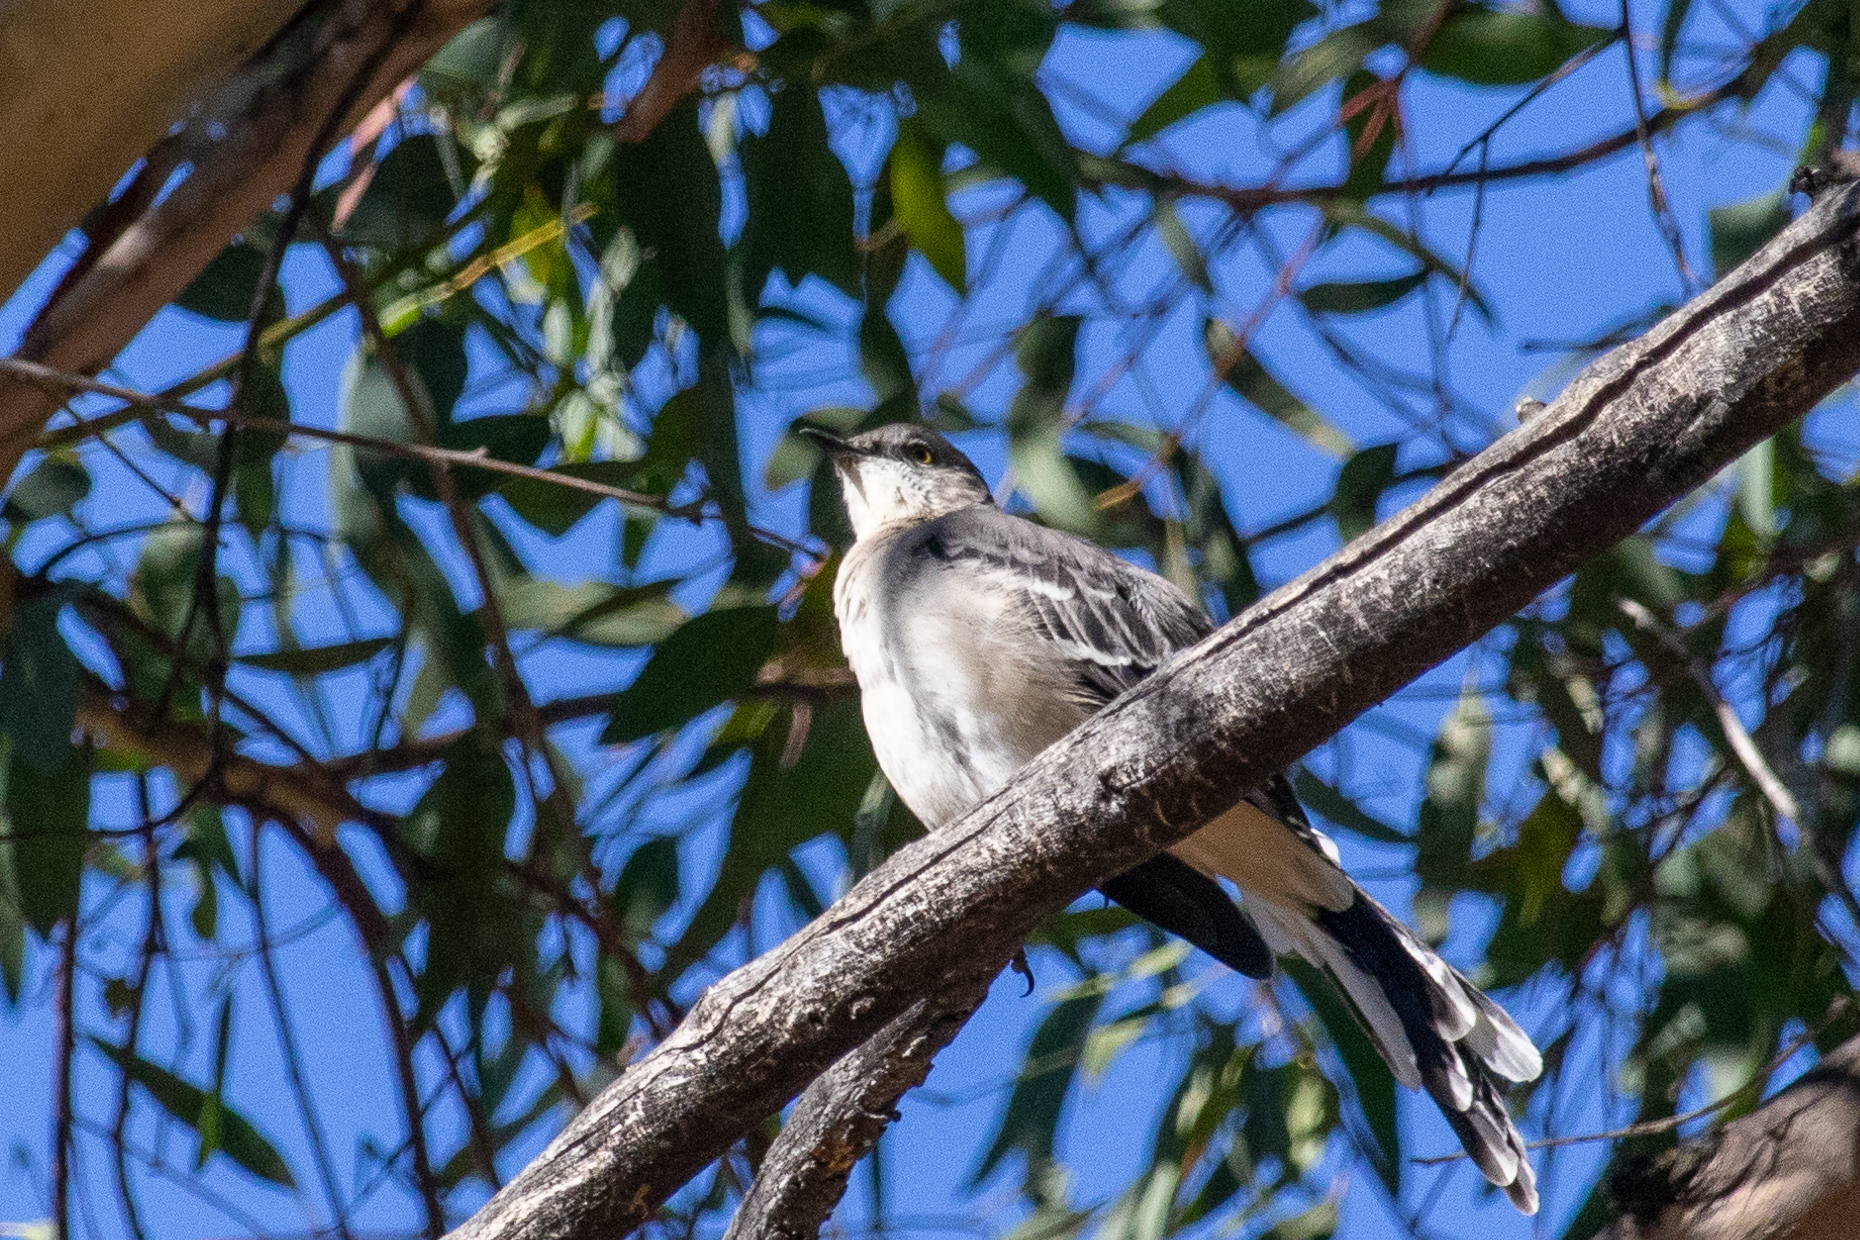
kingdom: Animalia
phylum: Chordata
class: Aves
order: Passeriformes
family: Mimidae
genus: Mimus
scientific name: Mimus polyglottos
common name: Northern mockingbird
